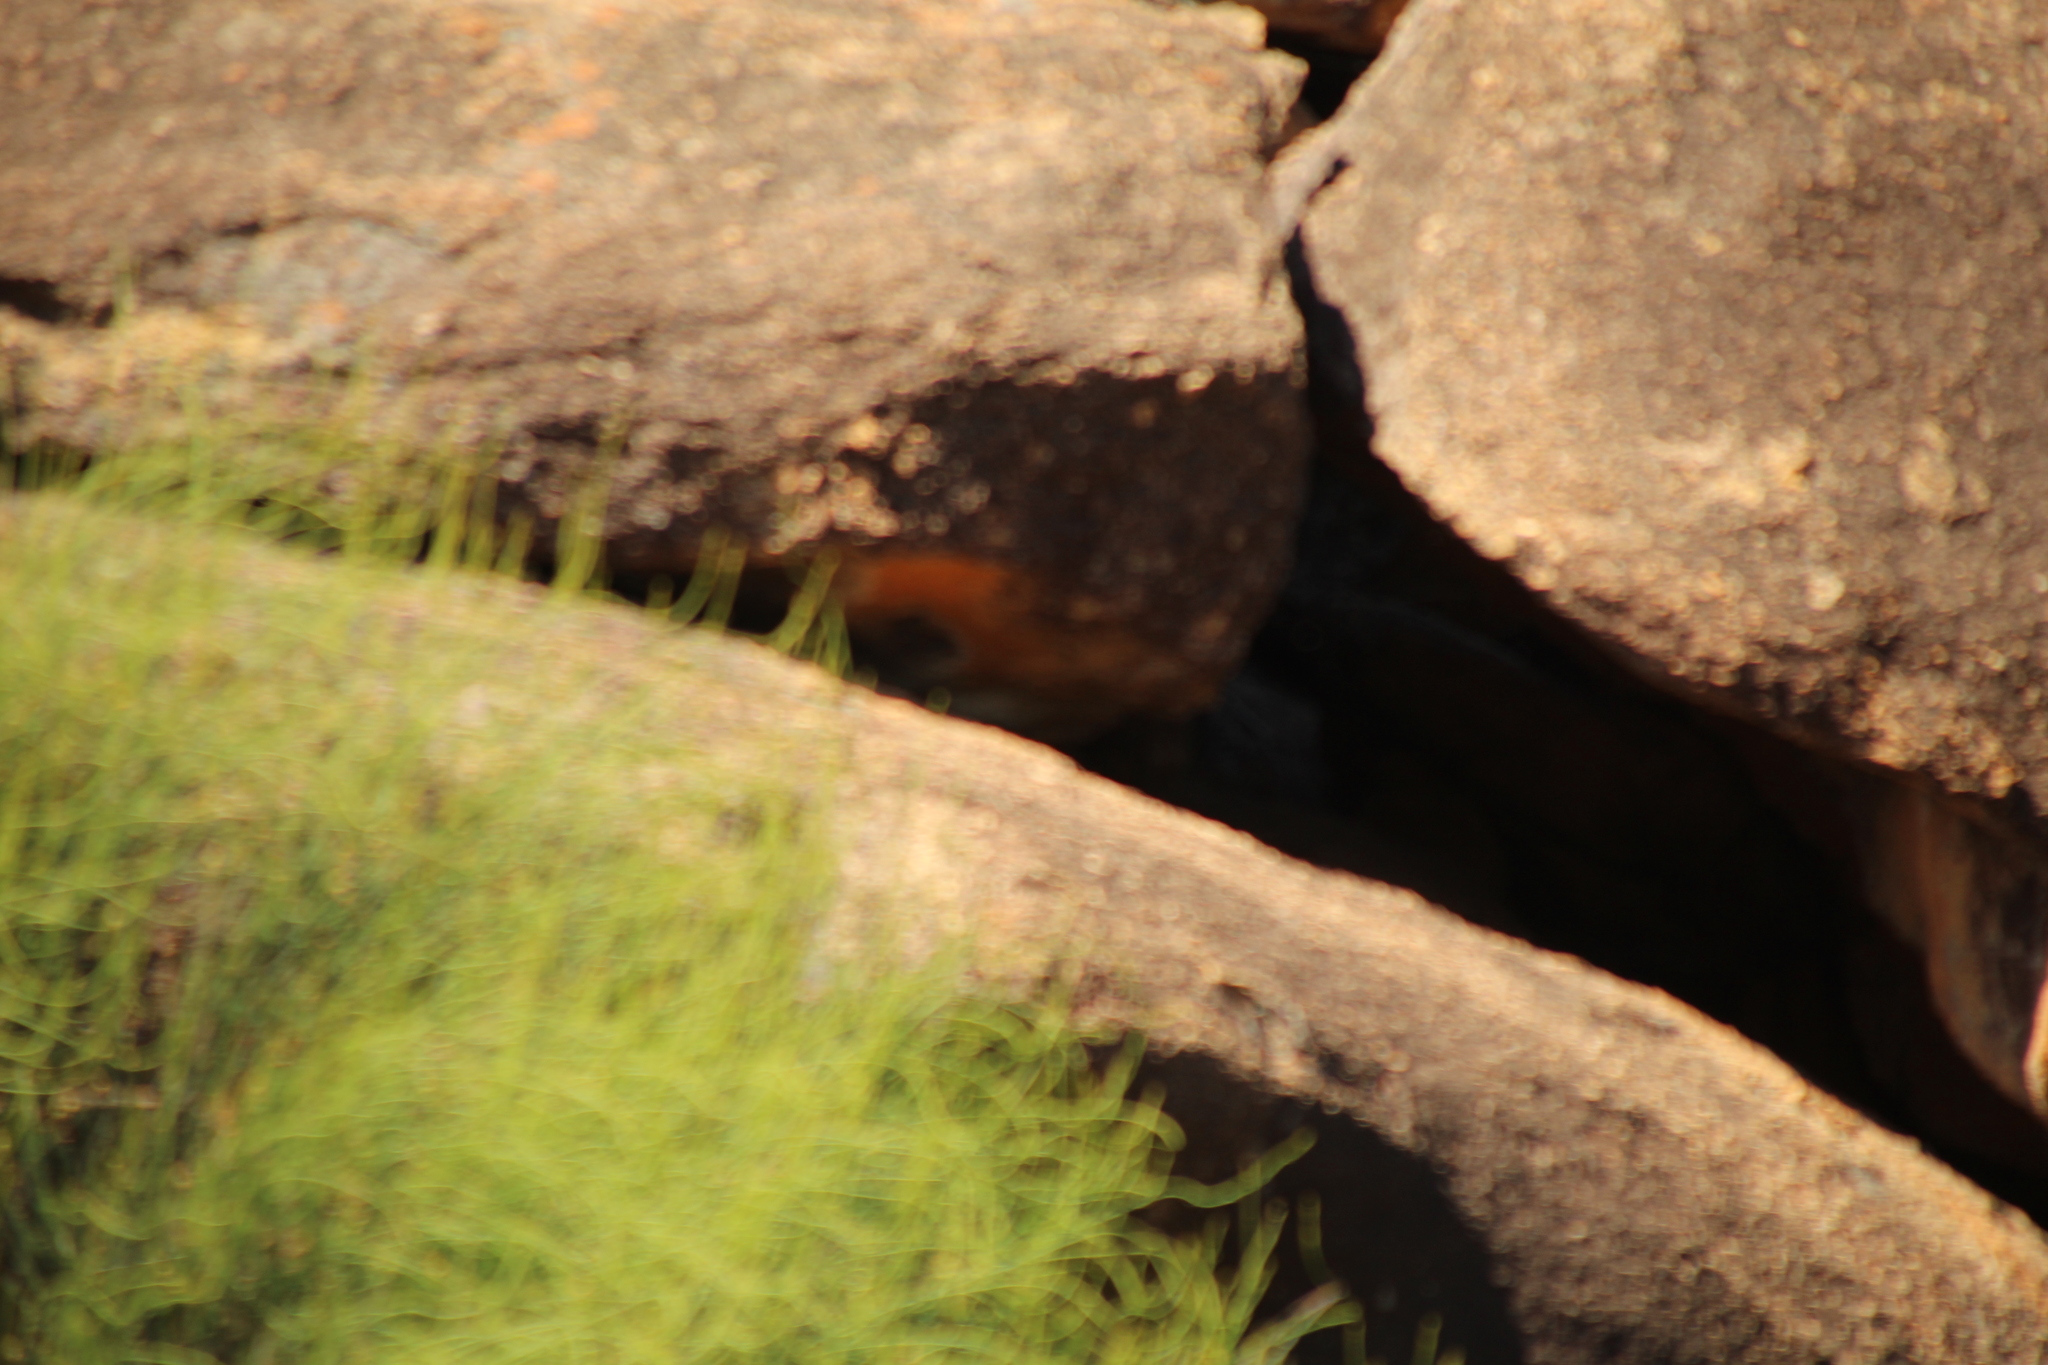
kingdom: Animalia
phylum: Chordata
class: Mammalia
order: Diprotodontia
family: Macropodidae
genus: Petrogale
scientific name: Petrogale lateralis
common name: Black-flanked rock-wallaby
